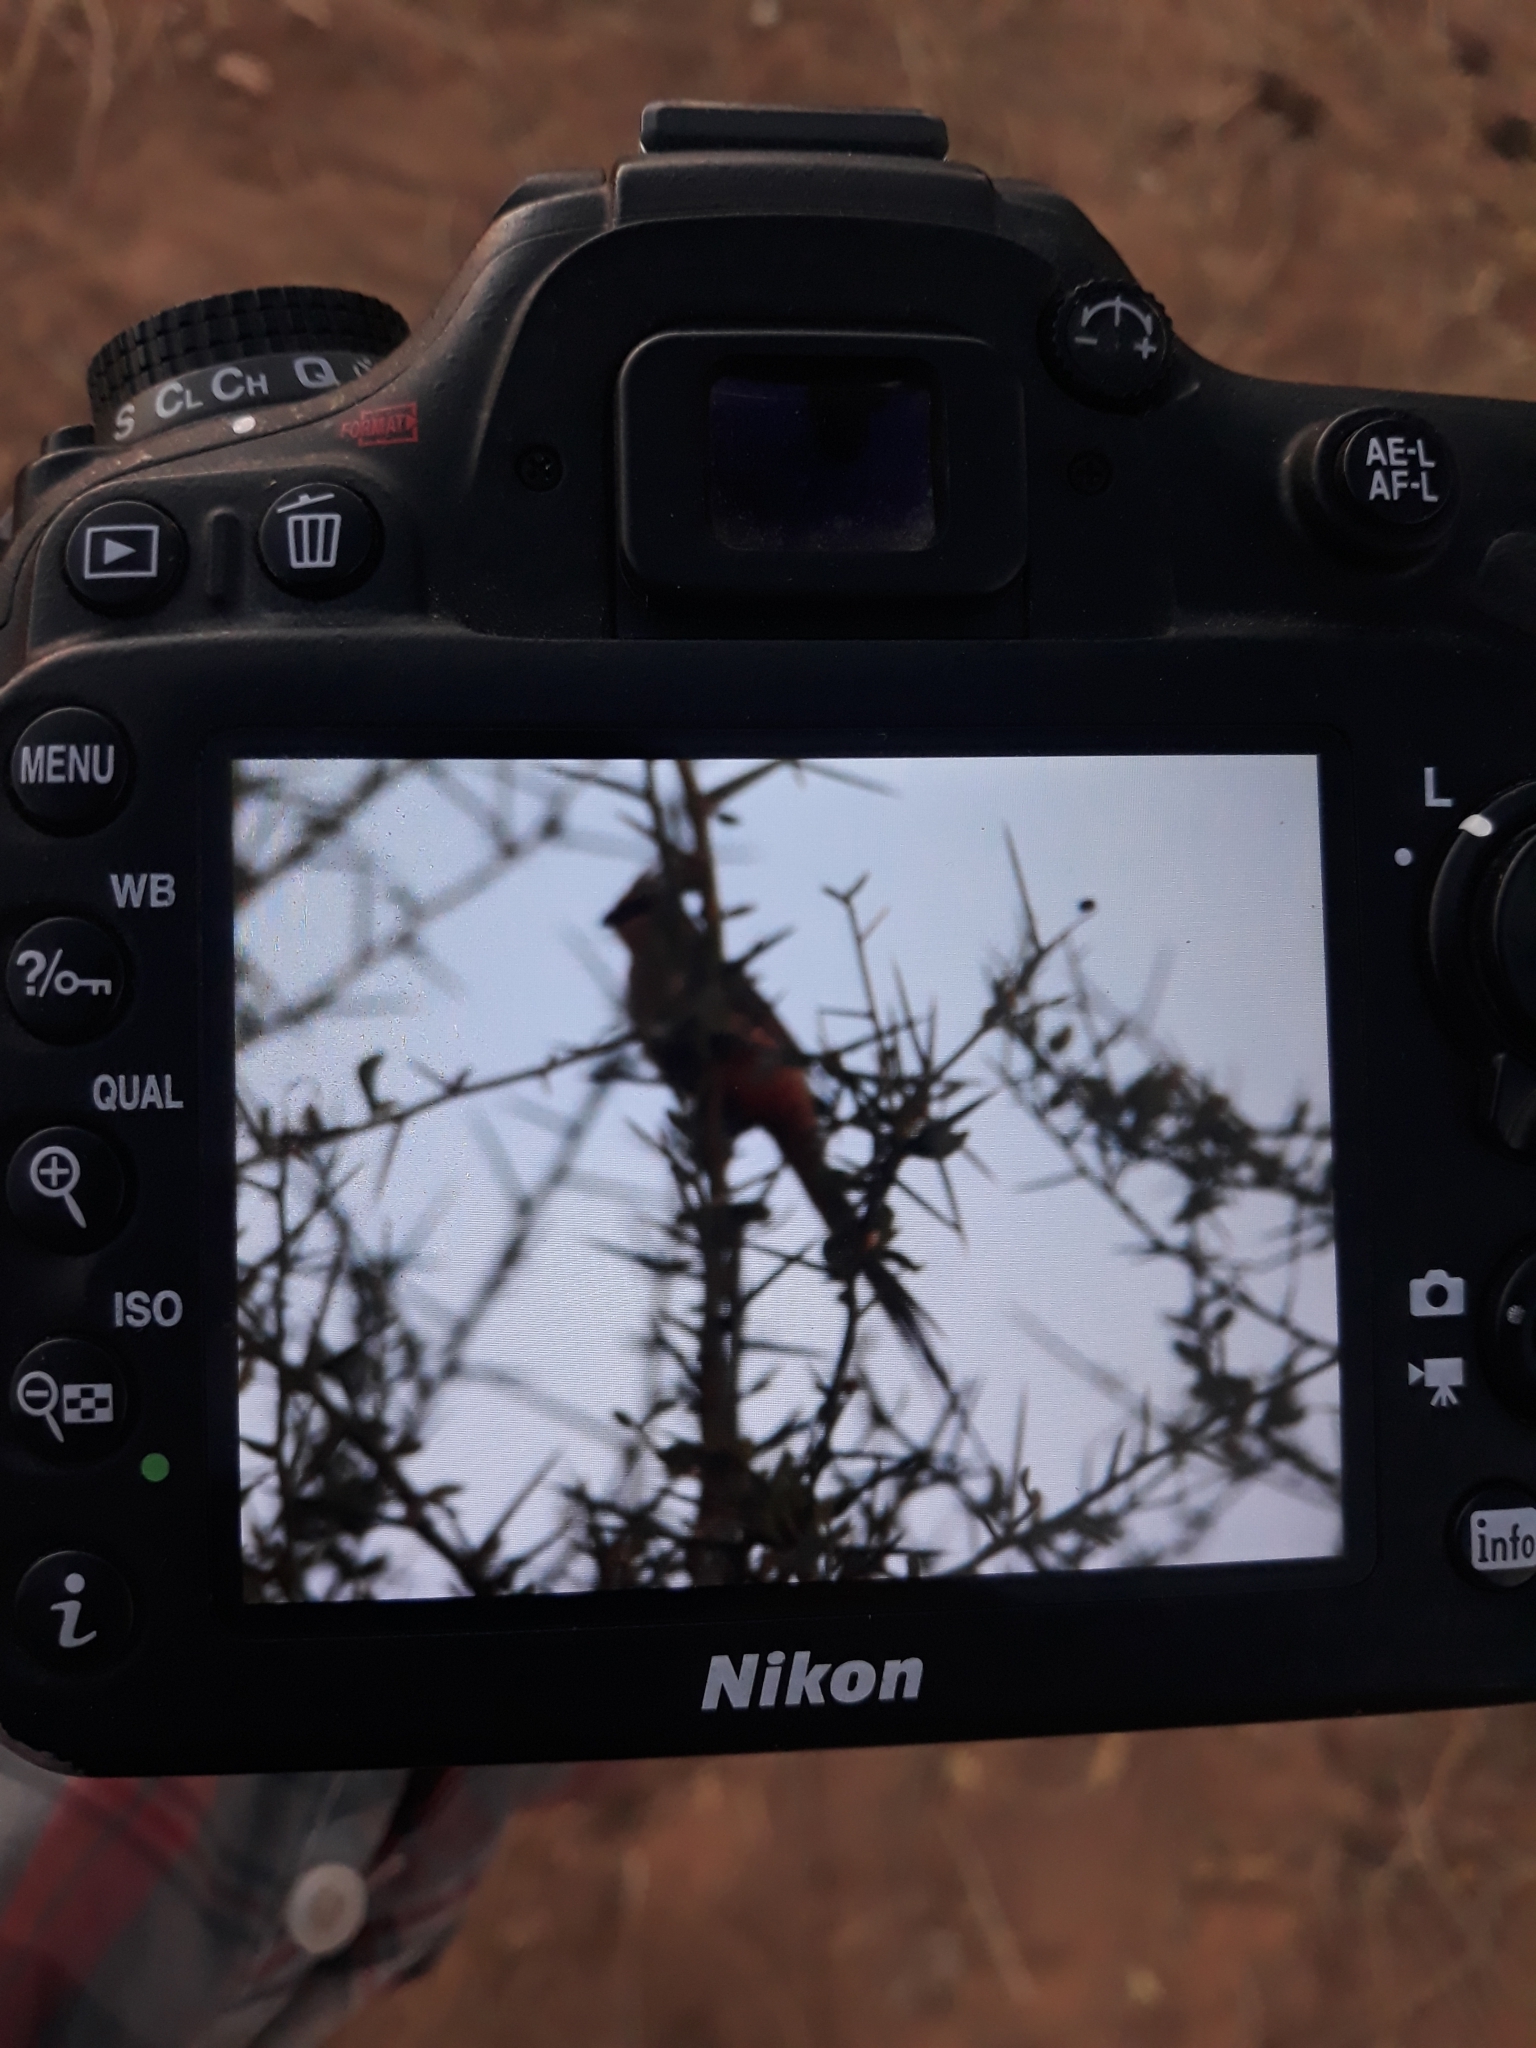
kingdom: Animalia
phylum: Chordata
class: Aves
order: Coliiformes
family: Coliidae
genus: Urocolius
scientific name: Urocolius macrourus
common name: Blue-naped mousebird
